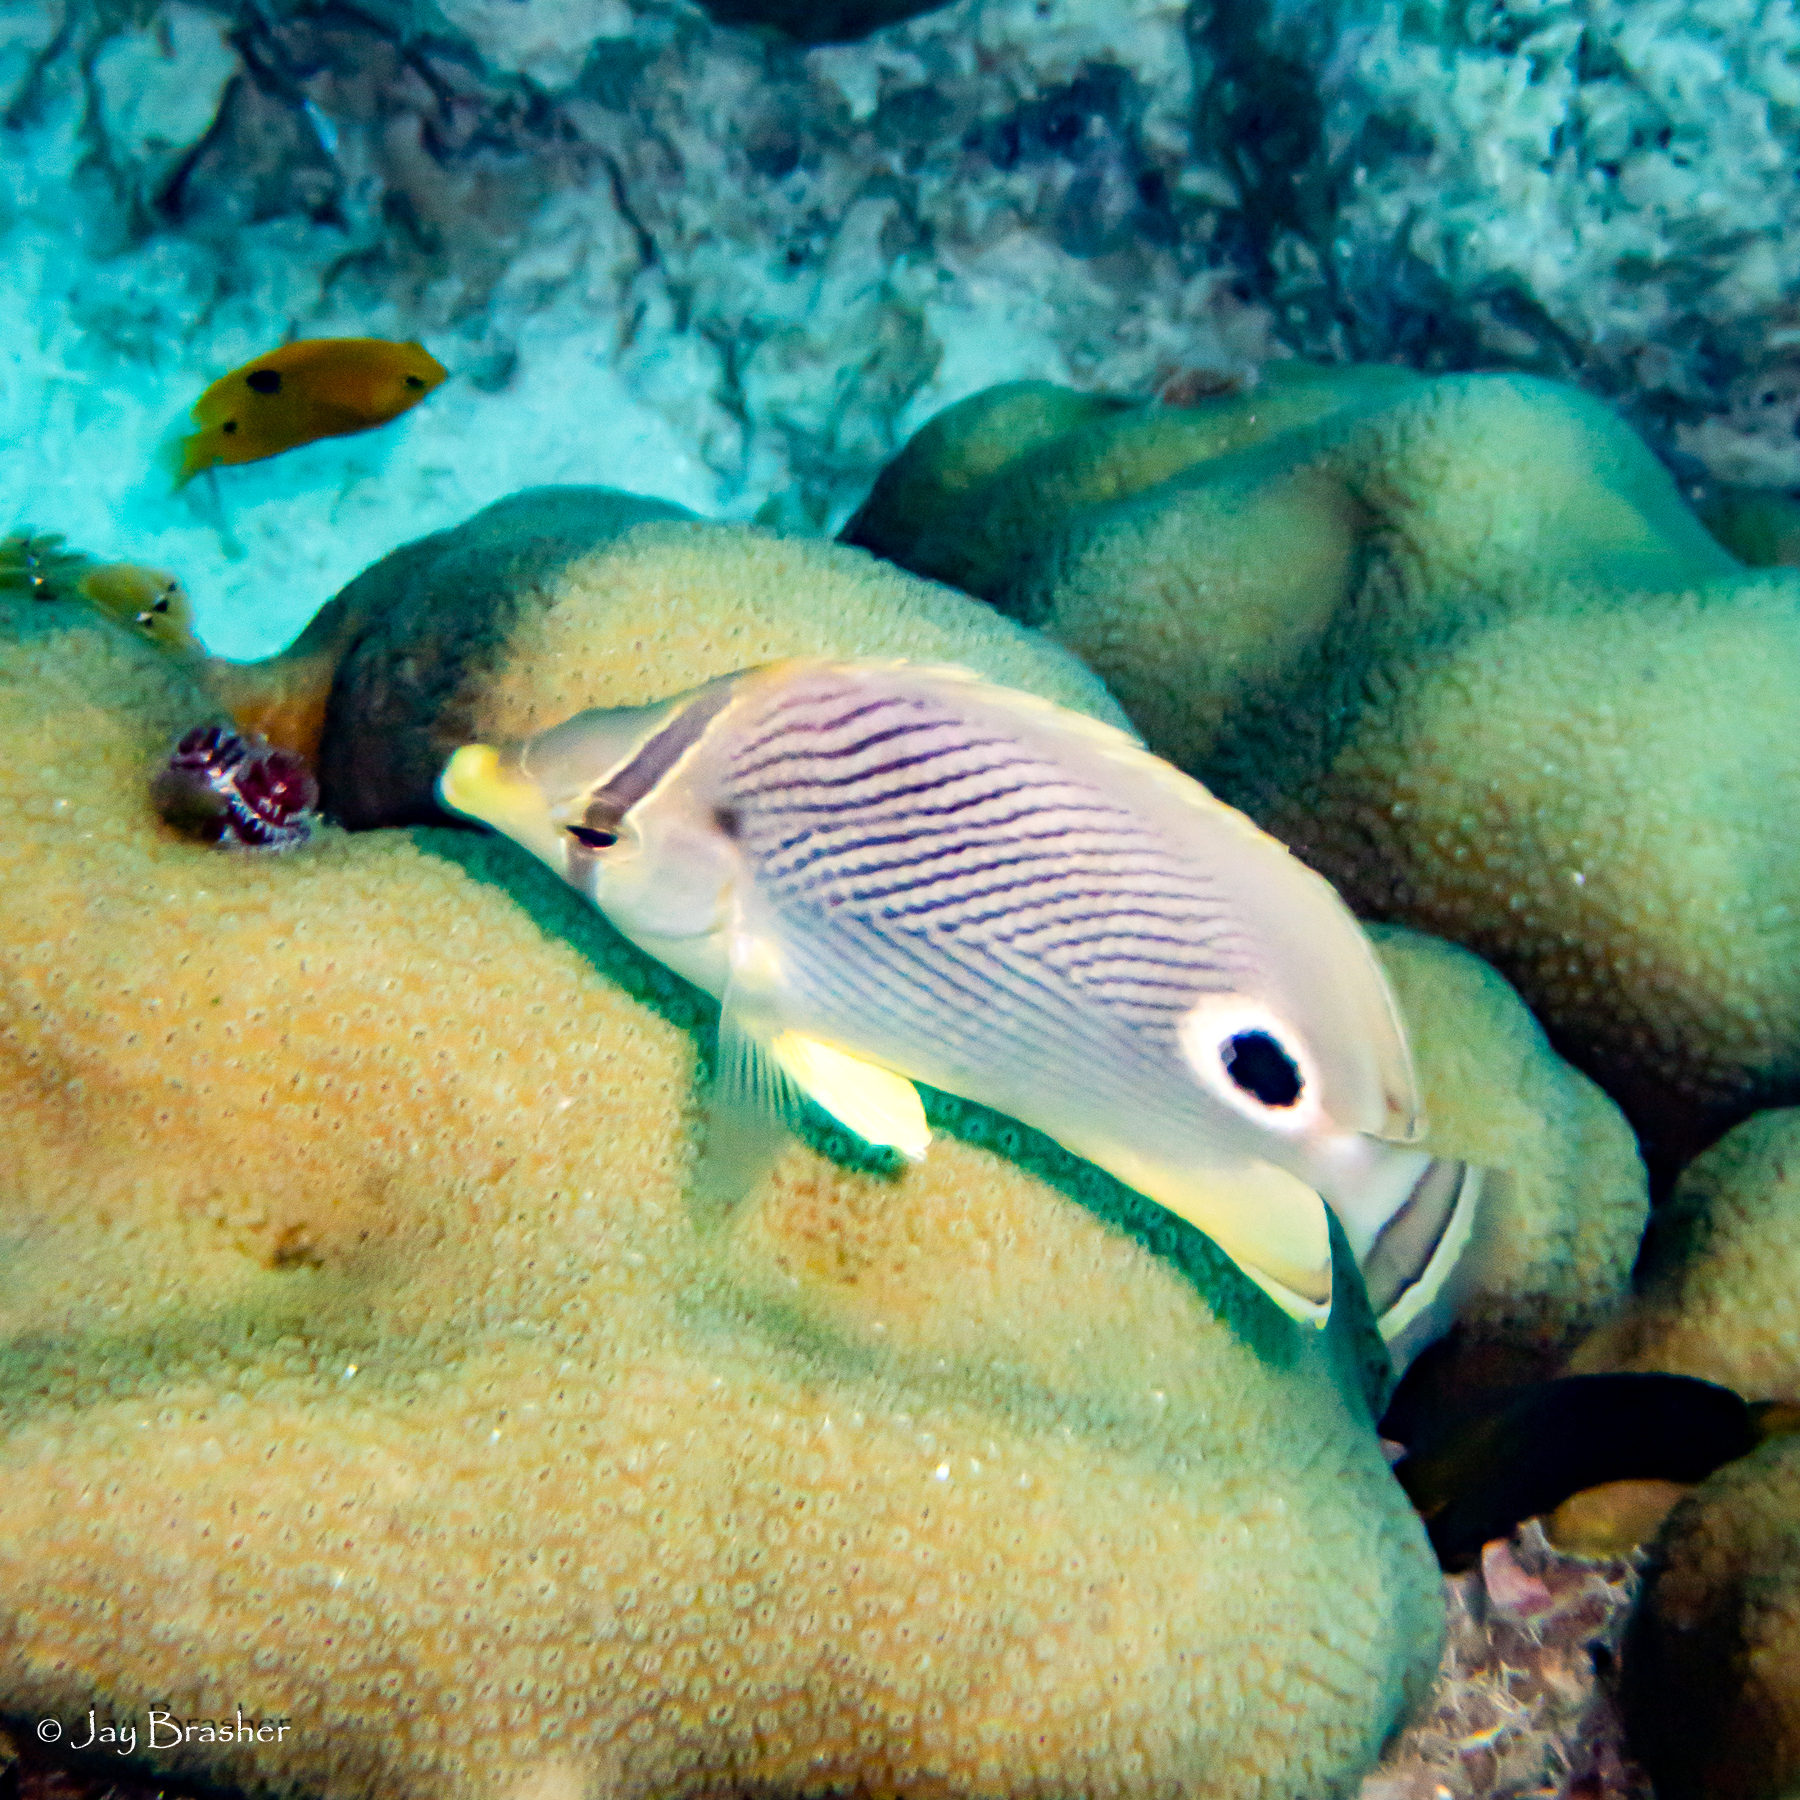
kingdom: Animalia
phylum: Chordata
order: Perciformes
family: Chaetodontidae
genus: Chaetodon
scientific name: Chaetodon capistratus
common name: Kete
